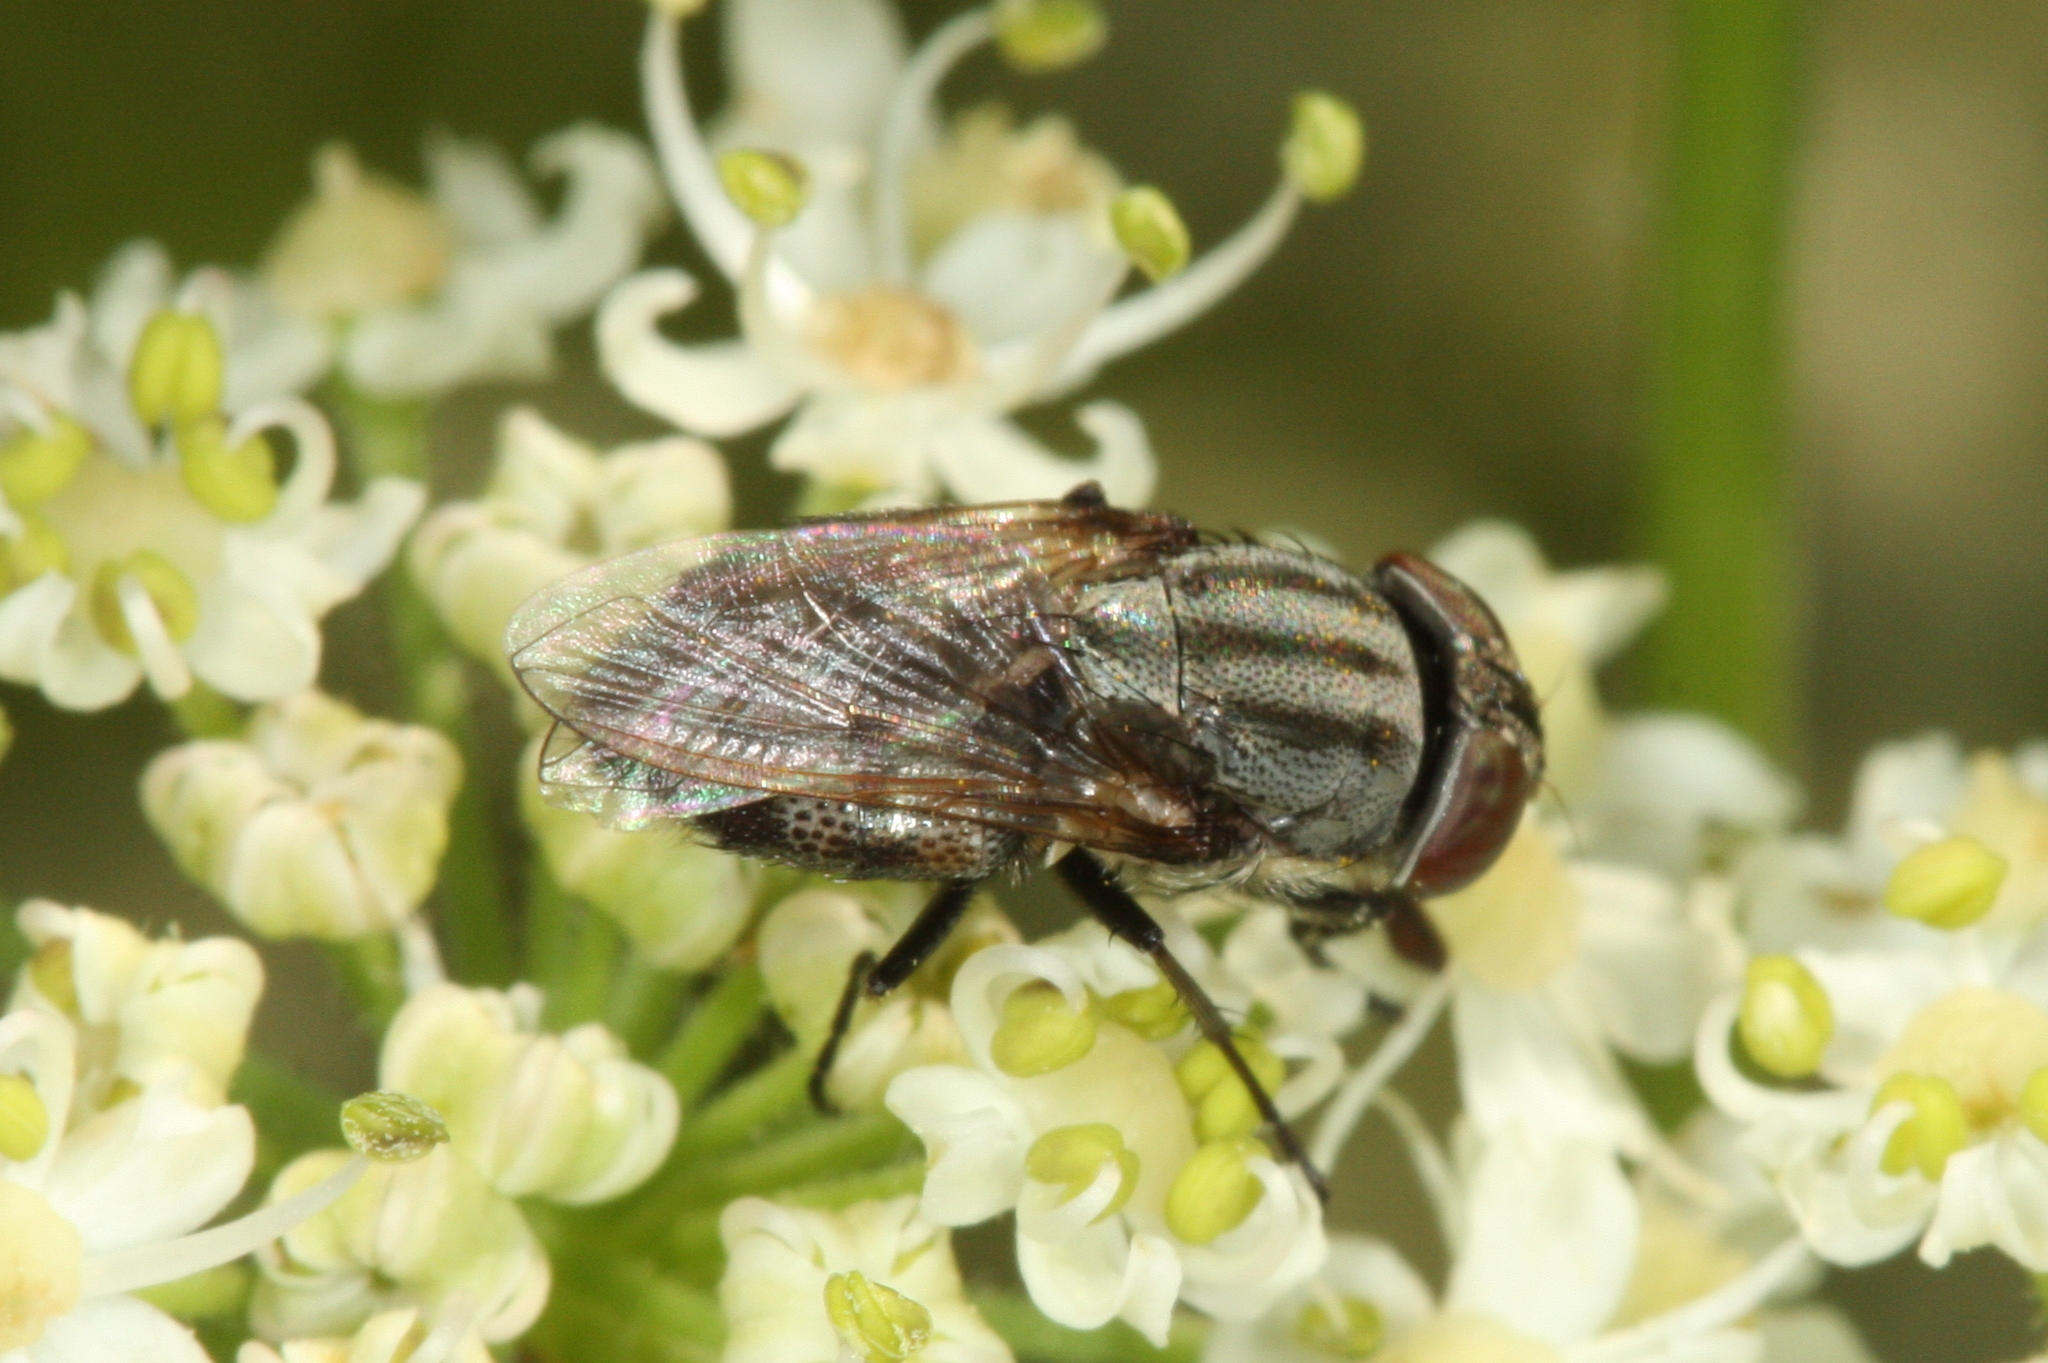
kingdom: Animalia
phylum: Arthropoda
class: Insecta
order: Diptera
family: Calliphoridae
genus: Stomorhina
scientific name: Stomorhina lunata
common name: Locust blowfly
